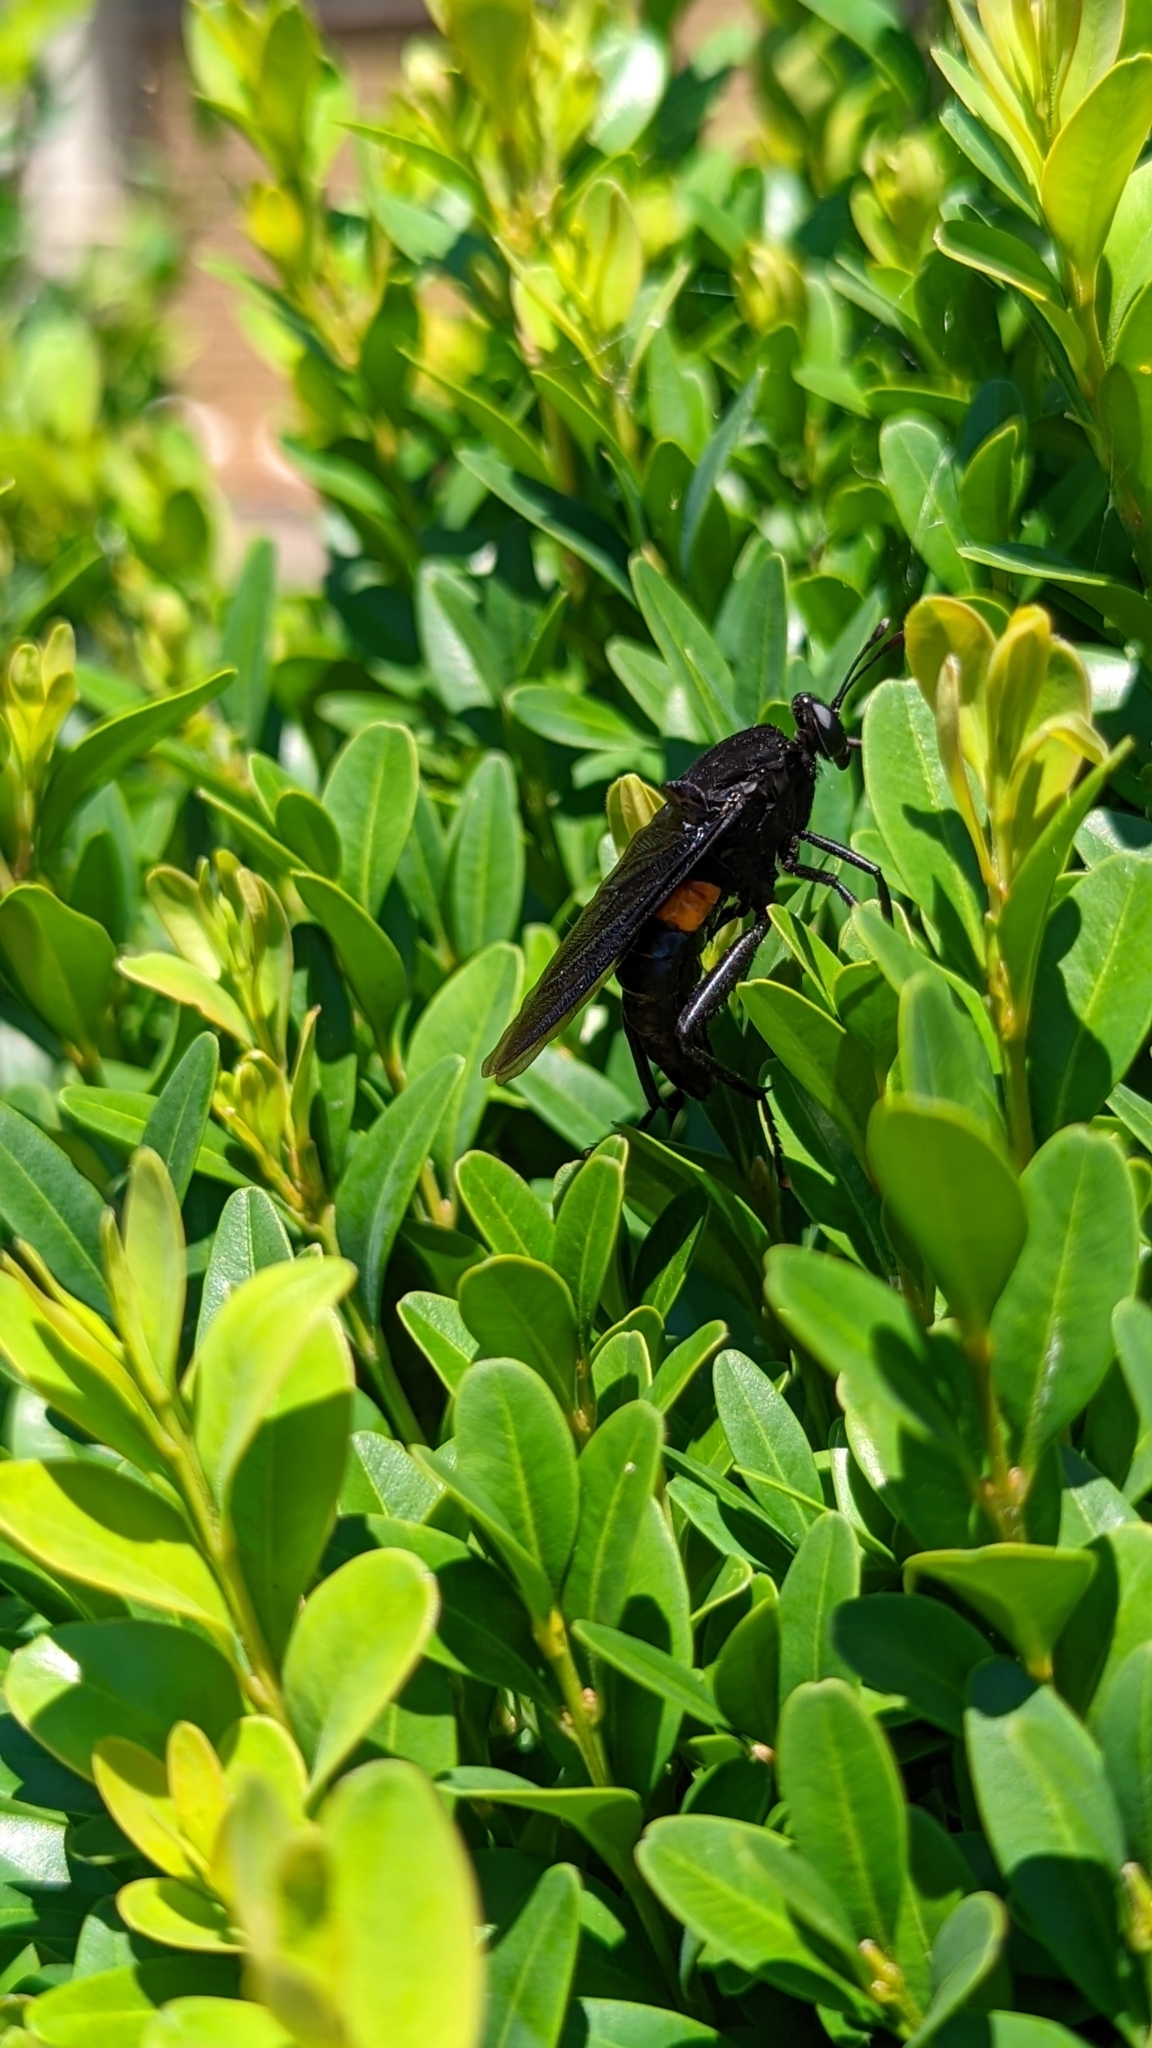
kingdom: Animalia
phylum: Arthropoda
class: Insecta
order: Diptera
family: Mydidae
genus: Mydas
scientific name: Mydas clavatus
